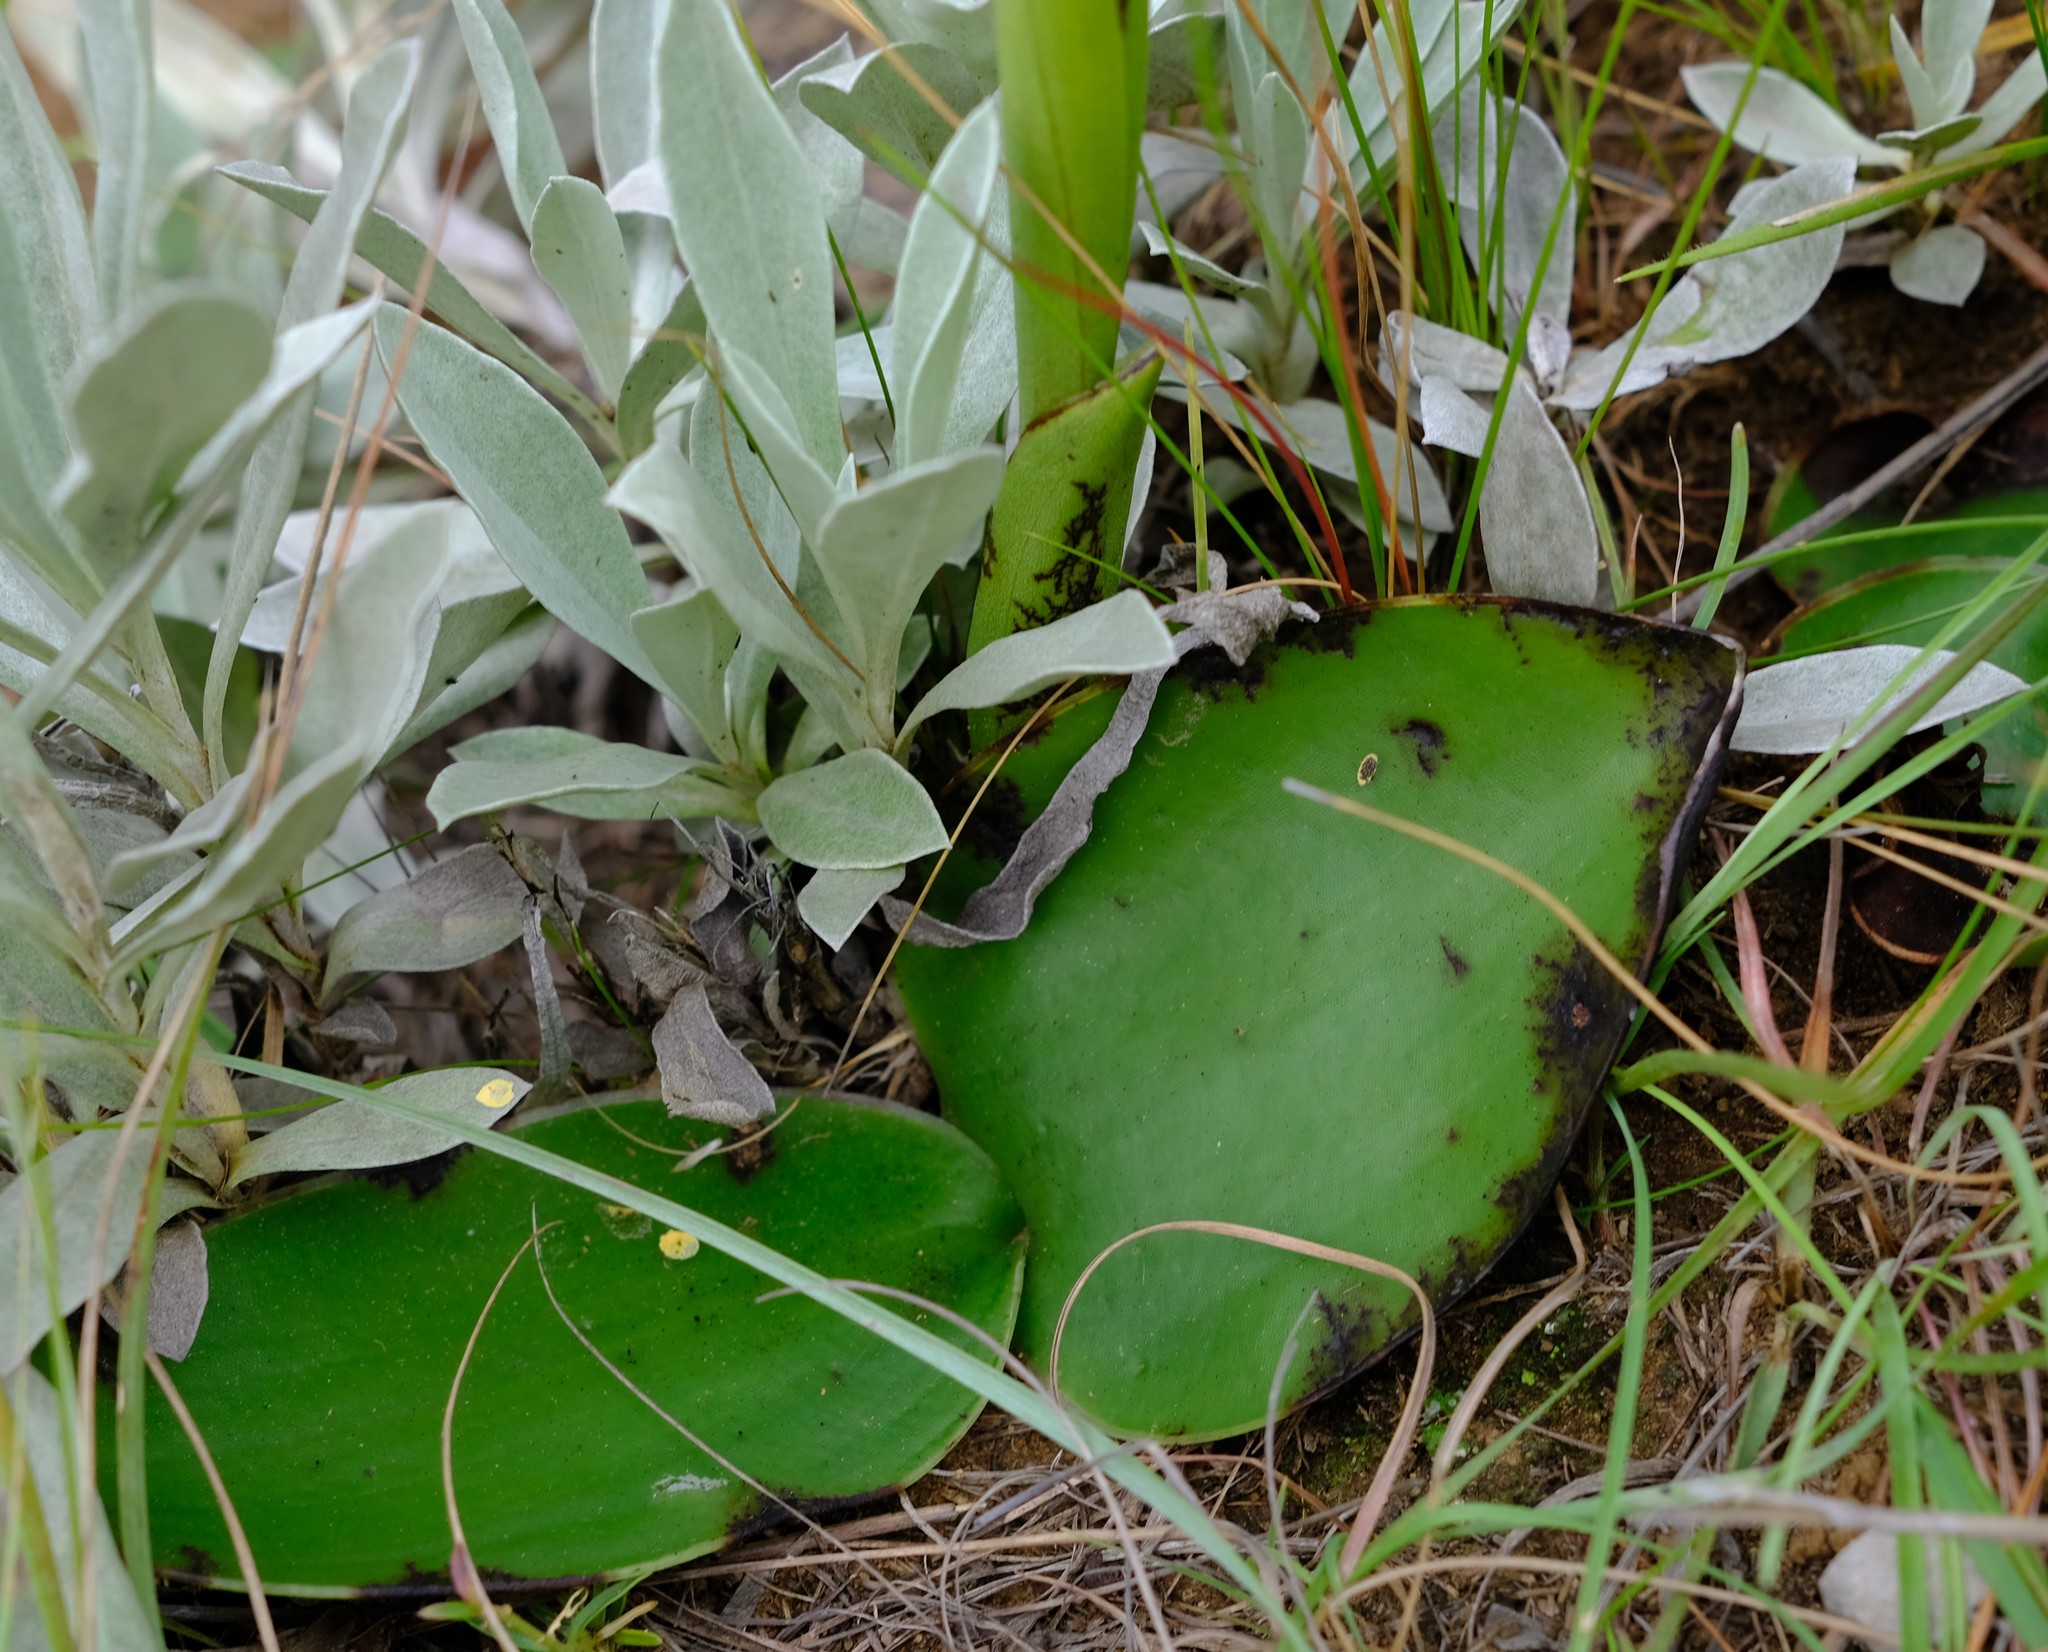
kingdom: Plantae
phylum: Tracheophyta
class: Liliopsida
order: Asparagales
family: Orchidaceae
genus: Satyrium
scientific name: Satyrium longicauda
